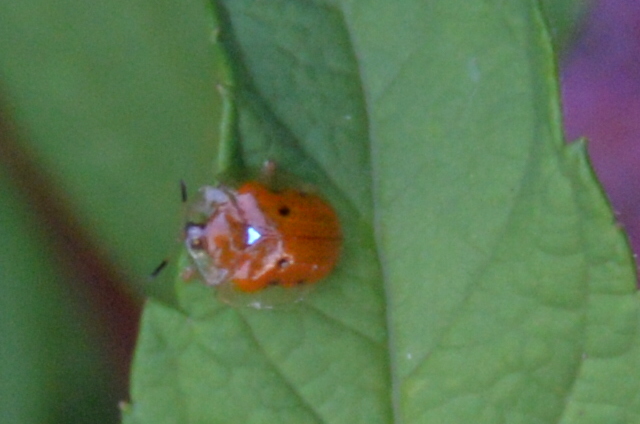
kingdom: Animalia
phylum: Arthropoda
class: Insecta
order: Coleoptera
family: Chrysomelidae
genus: Charidotella
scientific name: Charidotella sexpunctata
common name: Golden tortoise beetle
